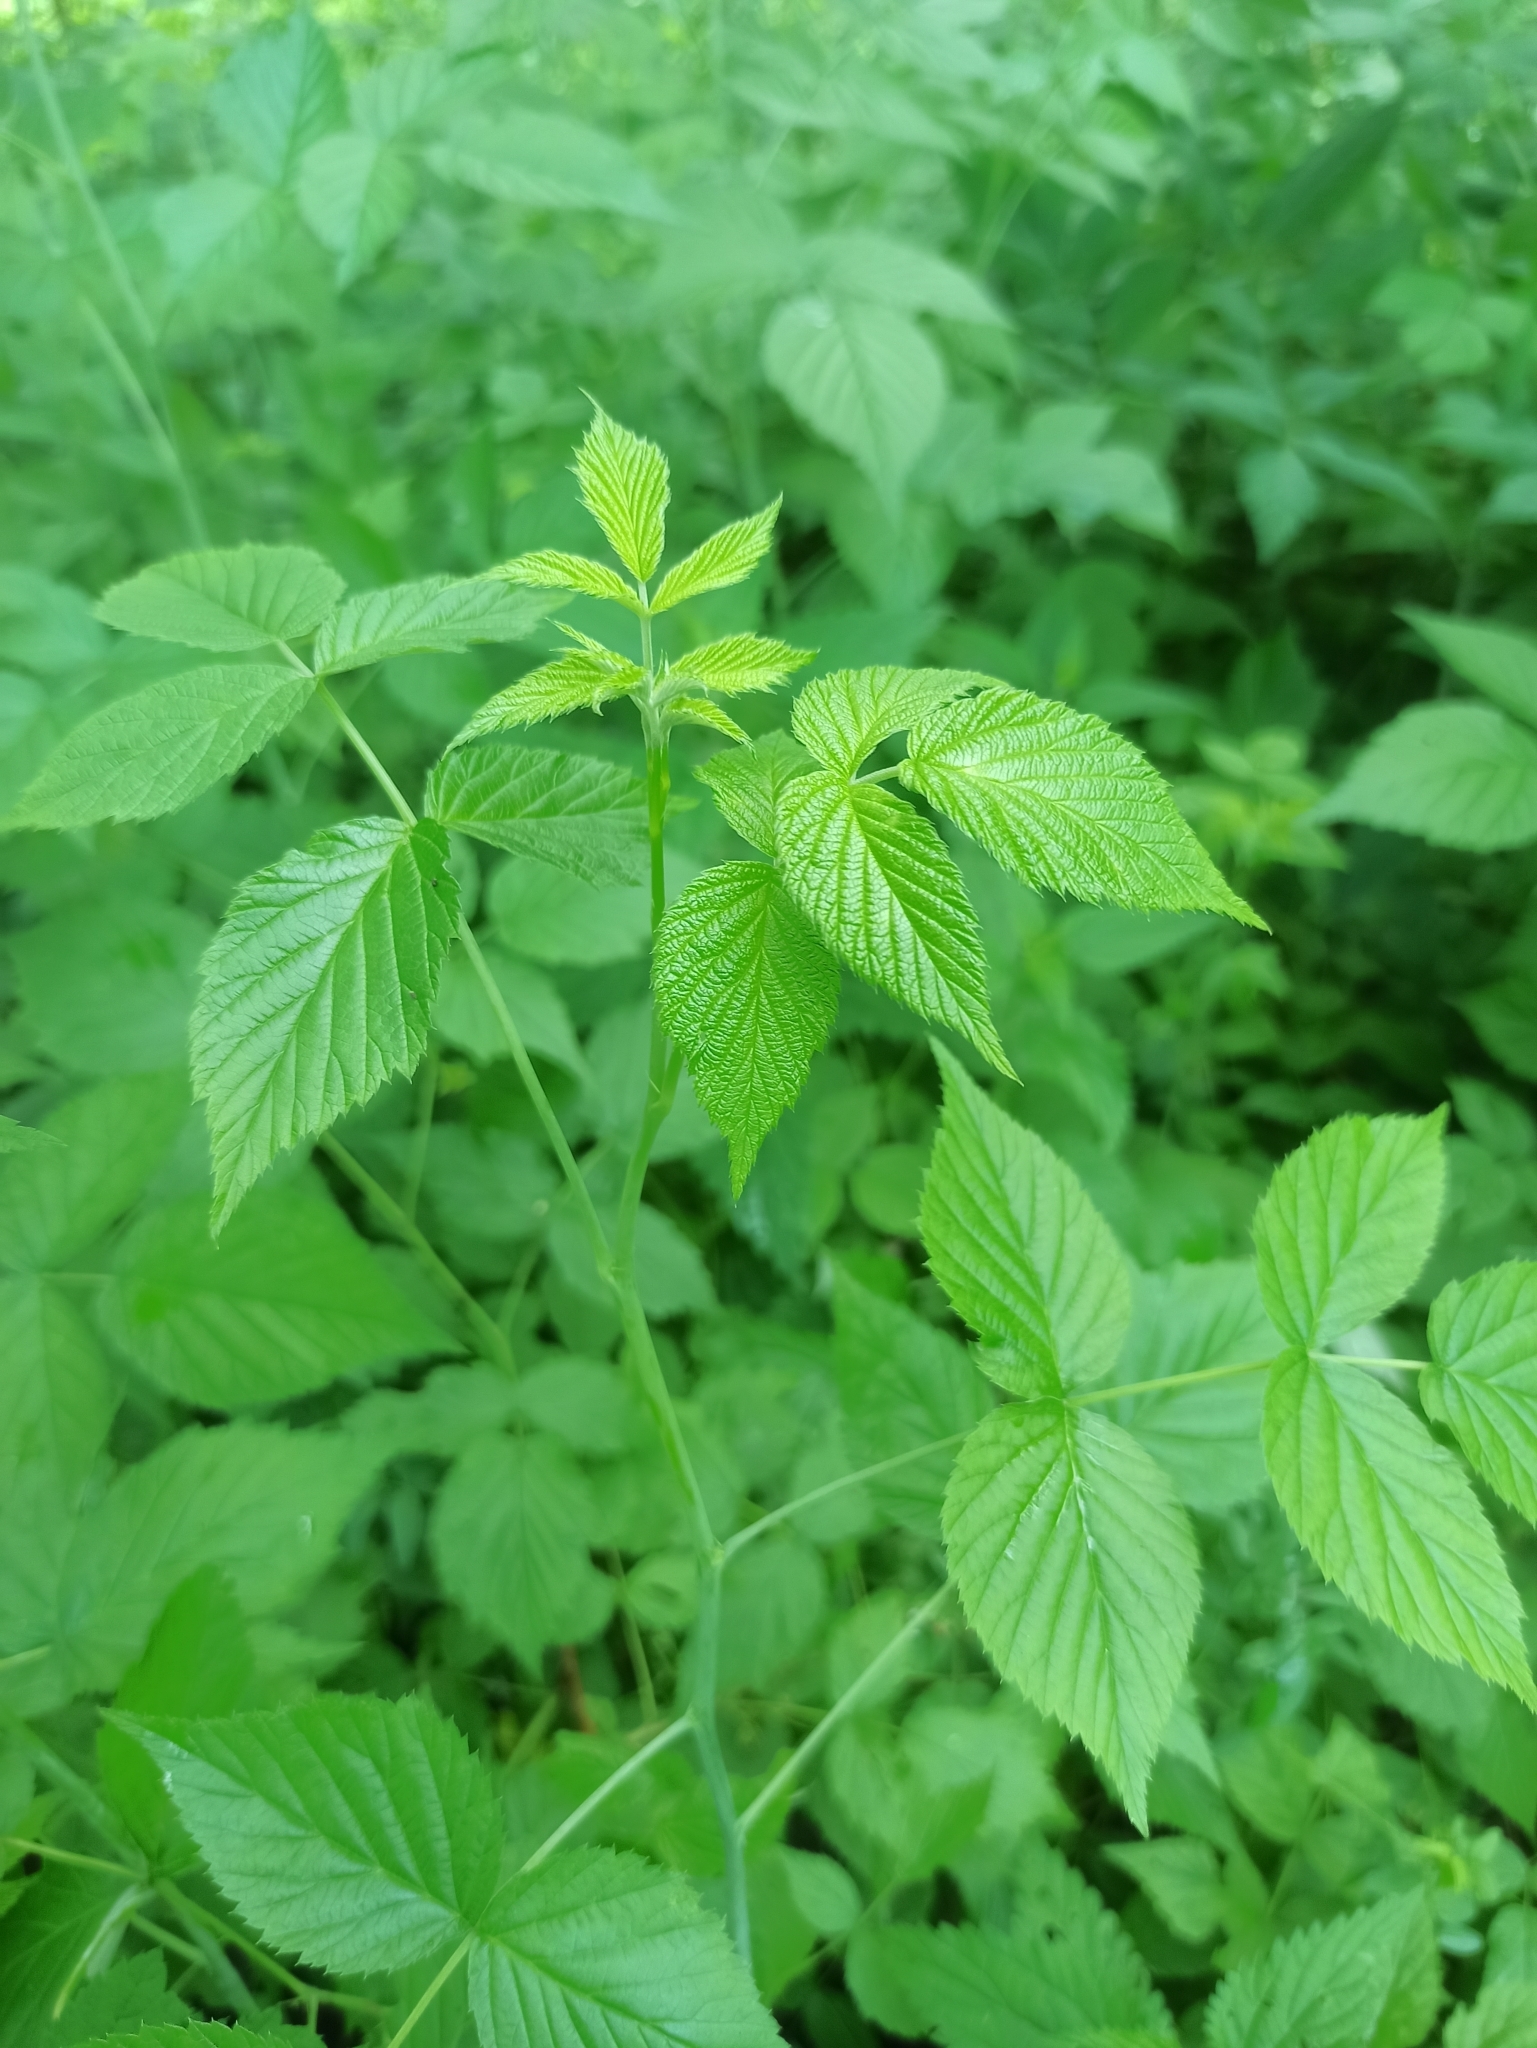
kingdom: Plantae
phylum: Tracheophyta
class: Magnoliopsida
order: Rosales
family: Rosaceae
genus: Rubus
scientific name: Rubus idaeus
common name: Raspberry
